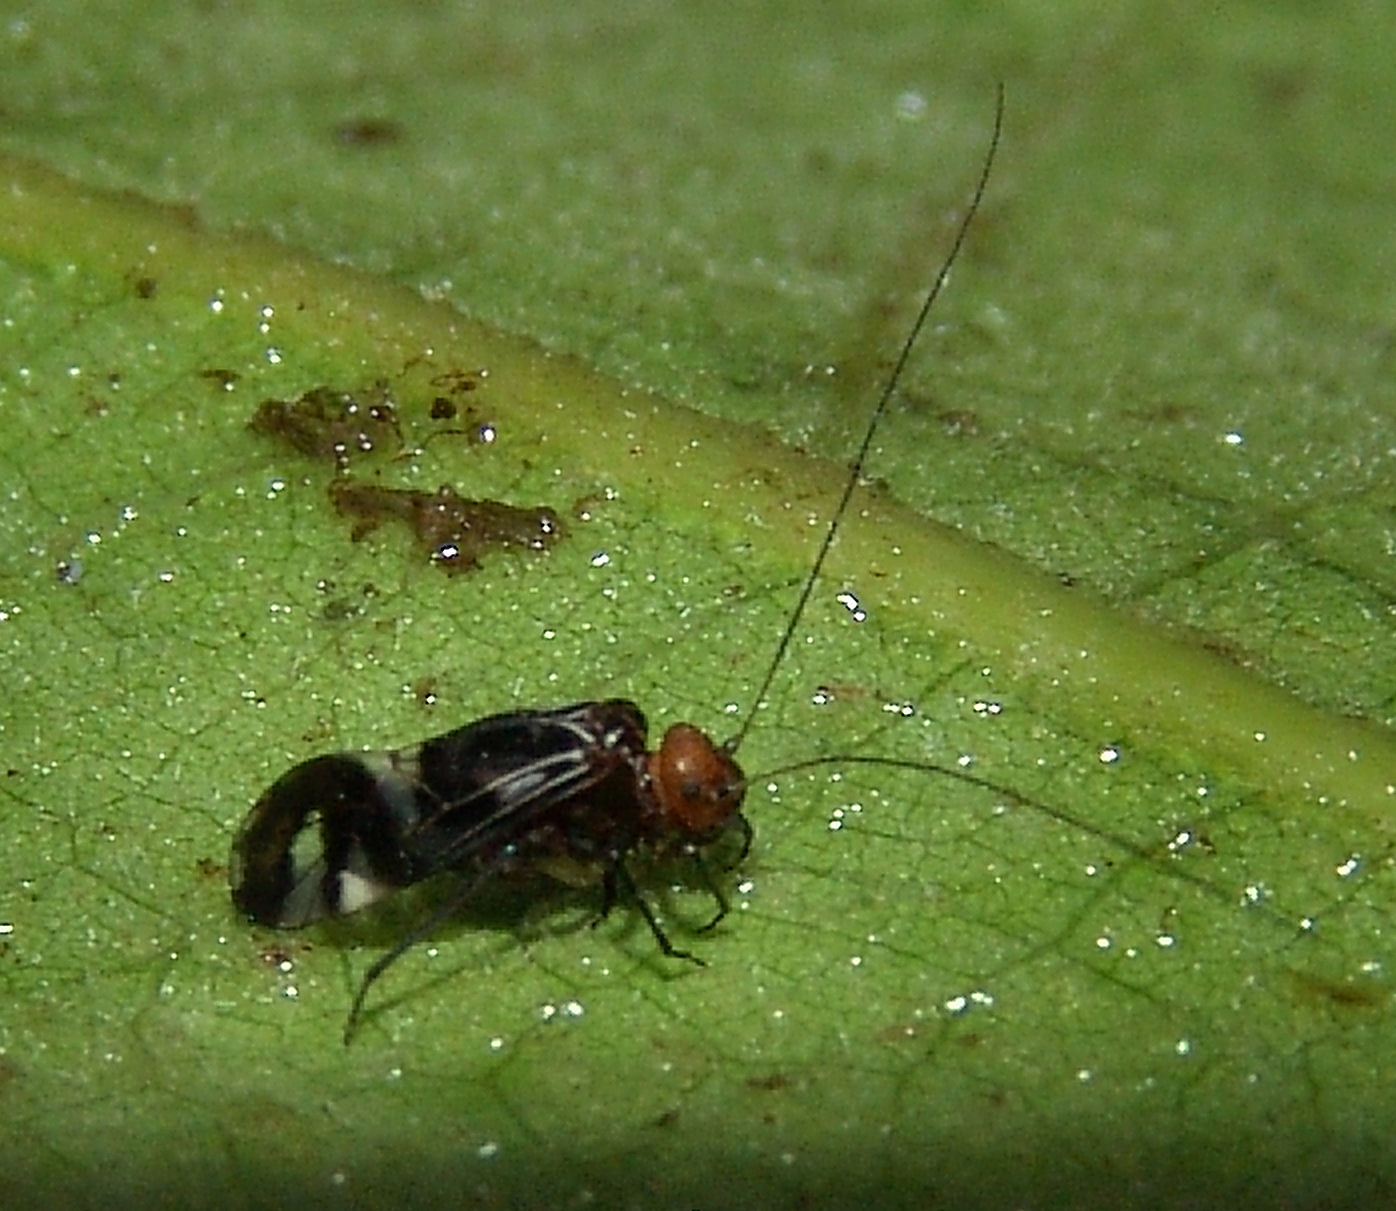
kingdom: Animalia
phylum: Arthropoda
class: Insecta
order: Psocodea
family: Psocidae
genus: Cerastipsocus
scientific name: Cerastipsocus trifasciatus
